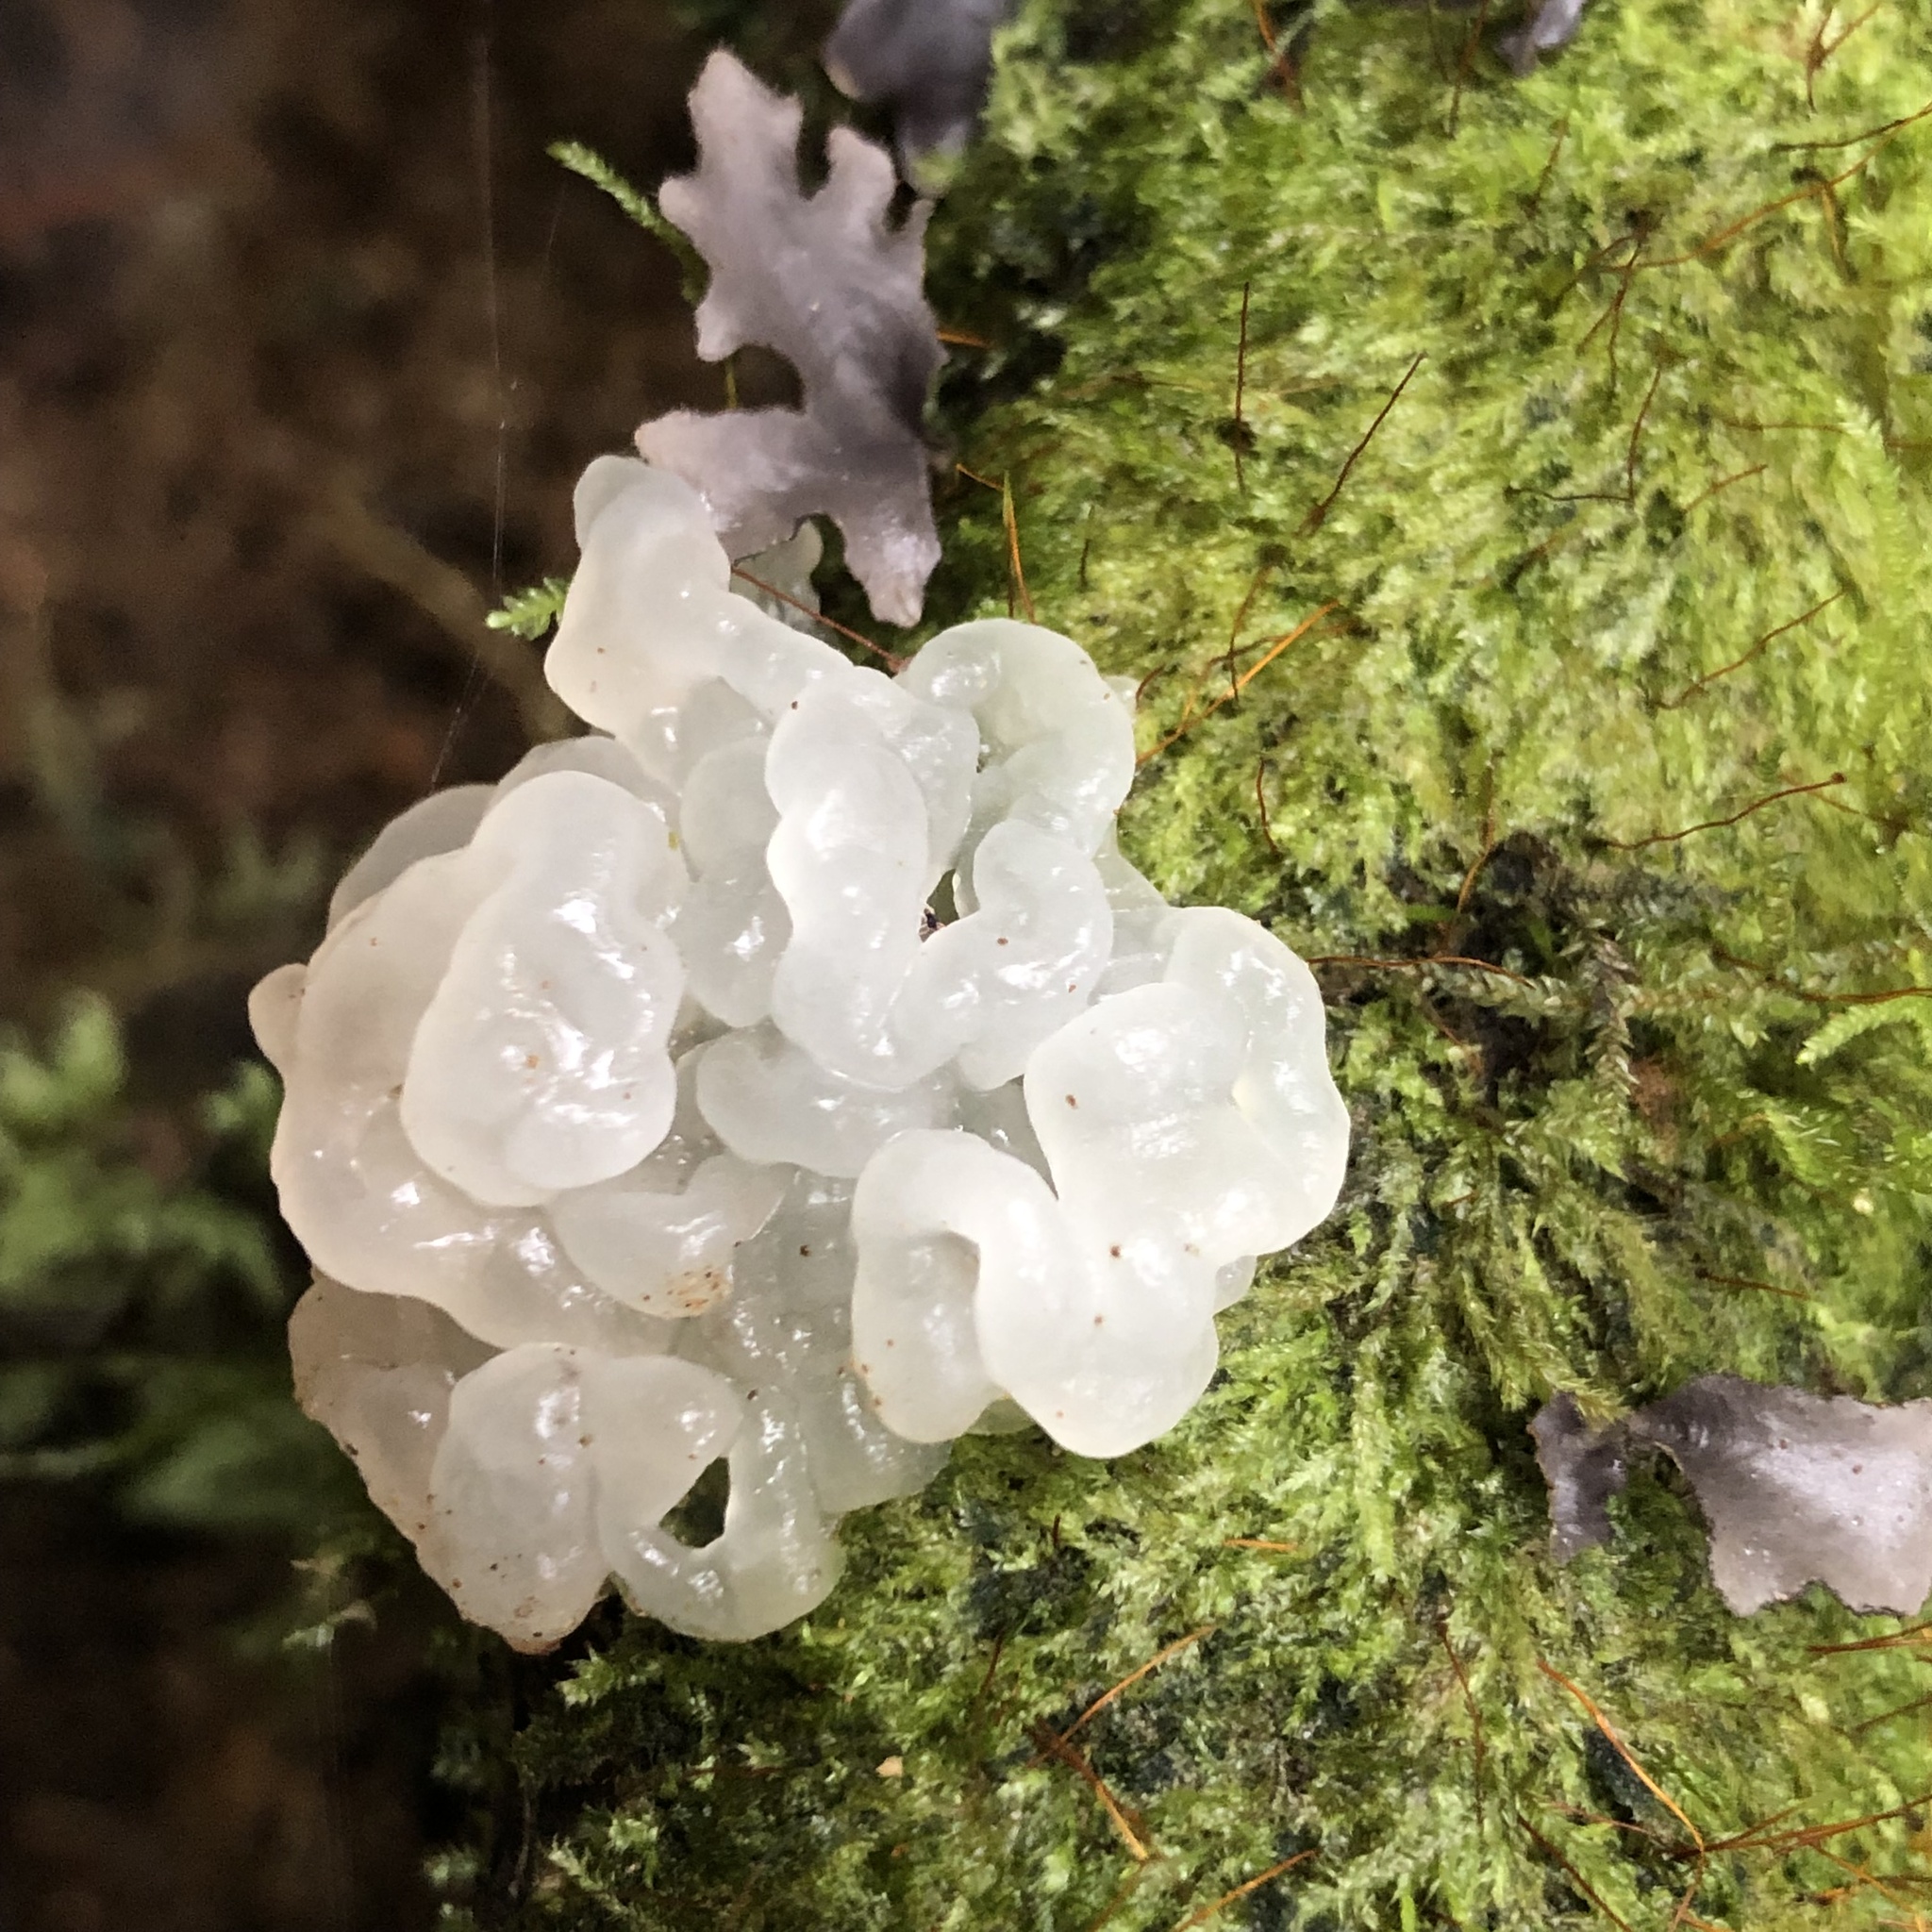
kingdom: Fungi
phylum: Basidiomycota
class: Tremellomycetes
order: Tremellales
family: Tremellaceae
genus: Tremella
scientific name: Tremella fuciformis
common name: Snow fungus
